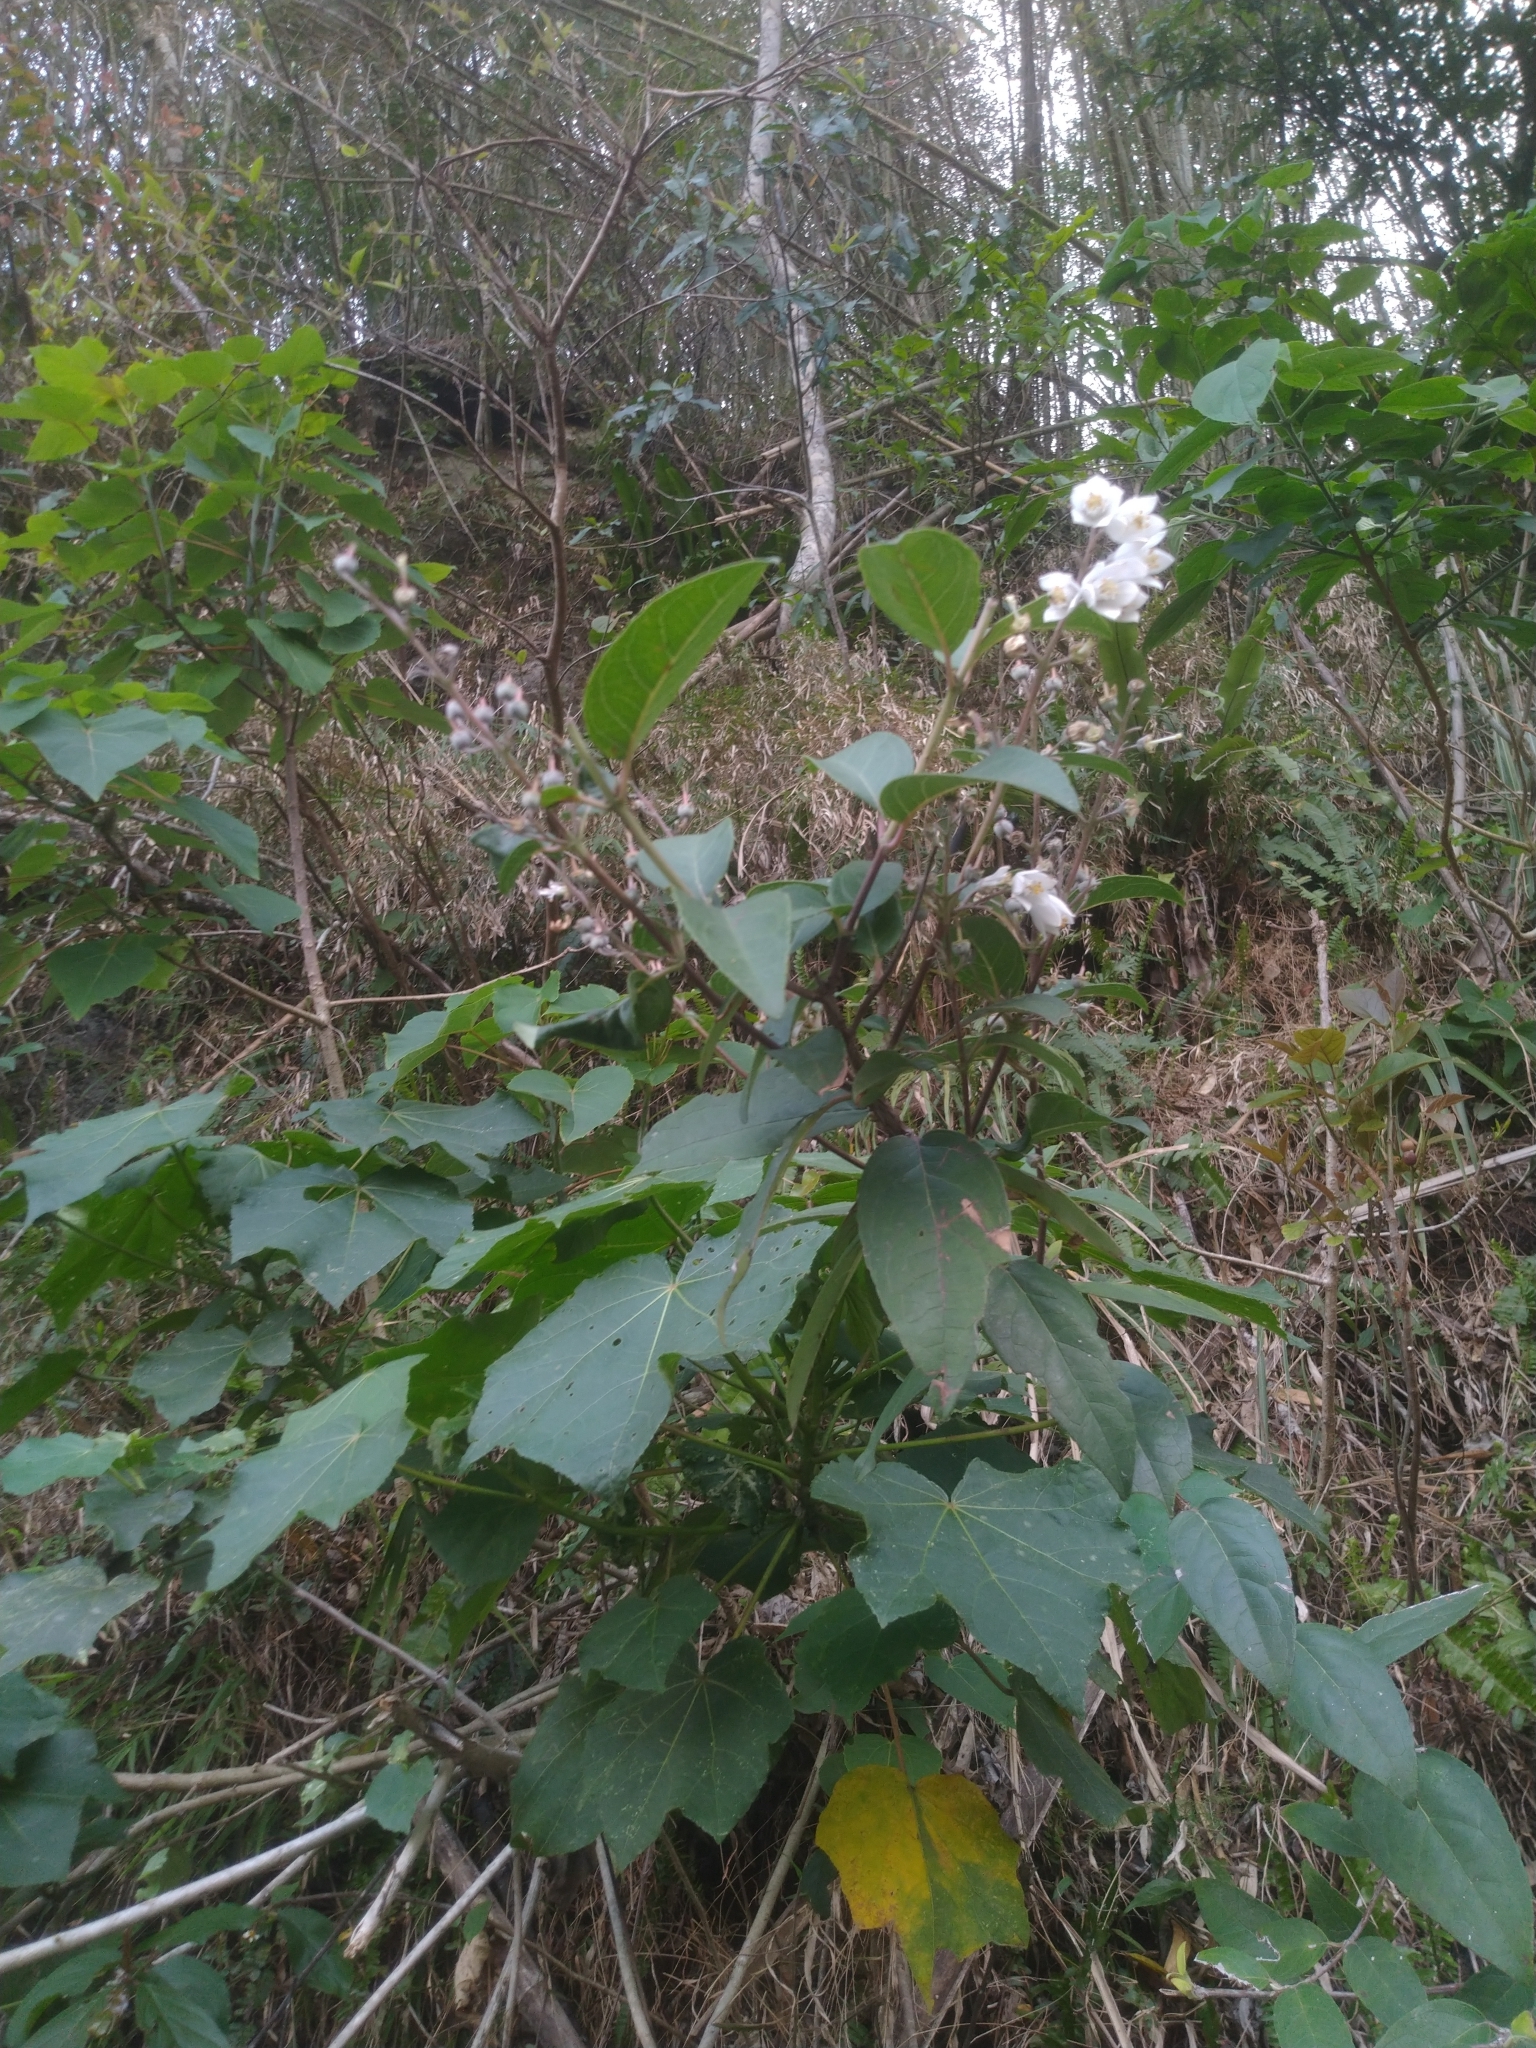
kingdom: Plantae
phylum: Tracheophyta
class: Magnoliopsida
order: Cornales
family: Hydrangeaceae
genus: Deutzia
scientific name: Deutzia pulchra
